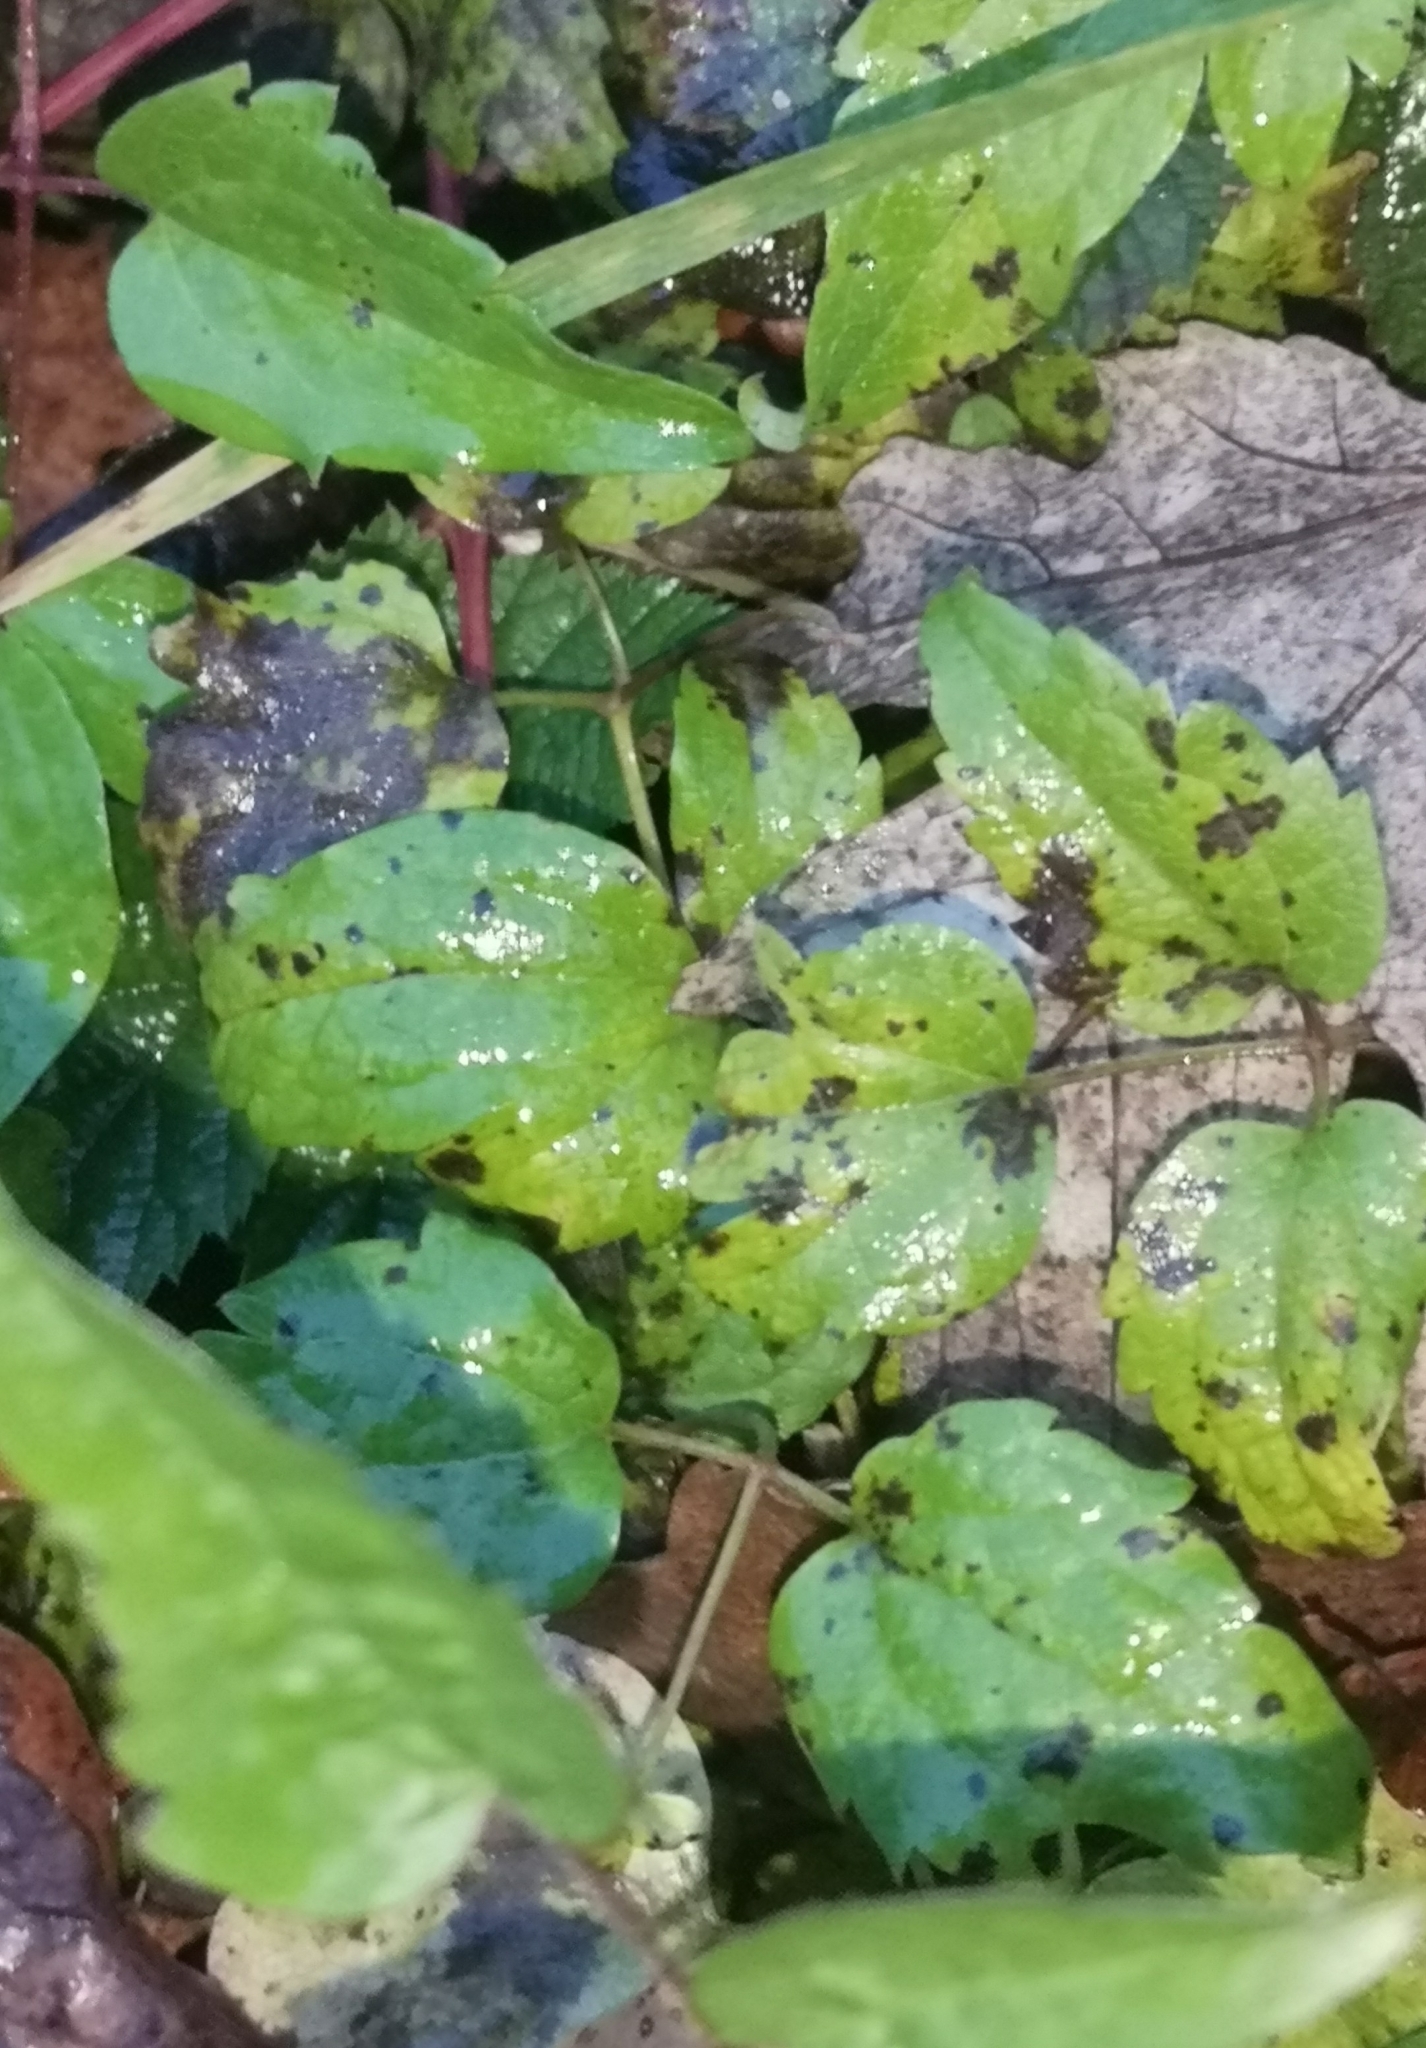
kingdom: Plantae
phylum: Tracheophyta
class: Magnoliopsida
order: Ranunculales
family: Ranunculaceae
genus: Clematis
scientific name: Clematis vitalba
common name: Evergreen clematis
